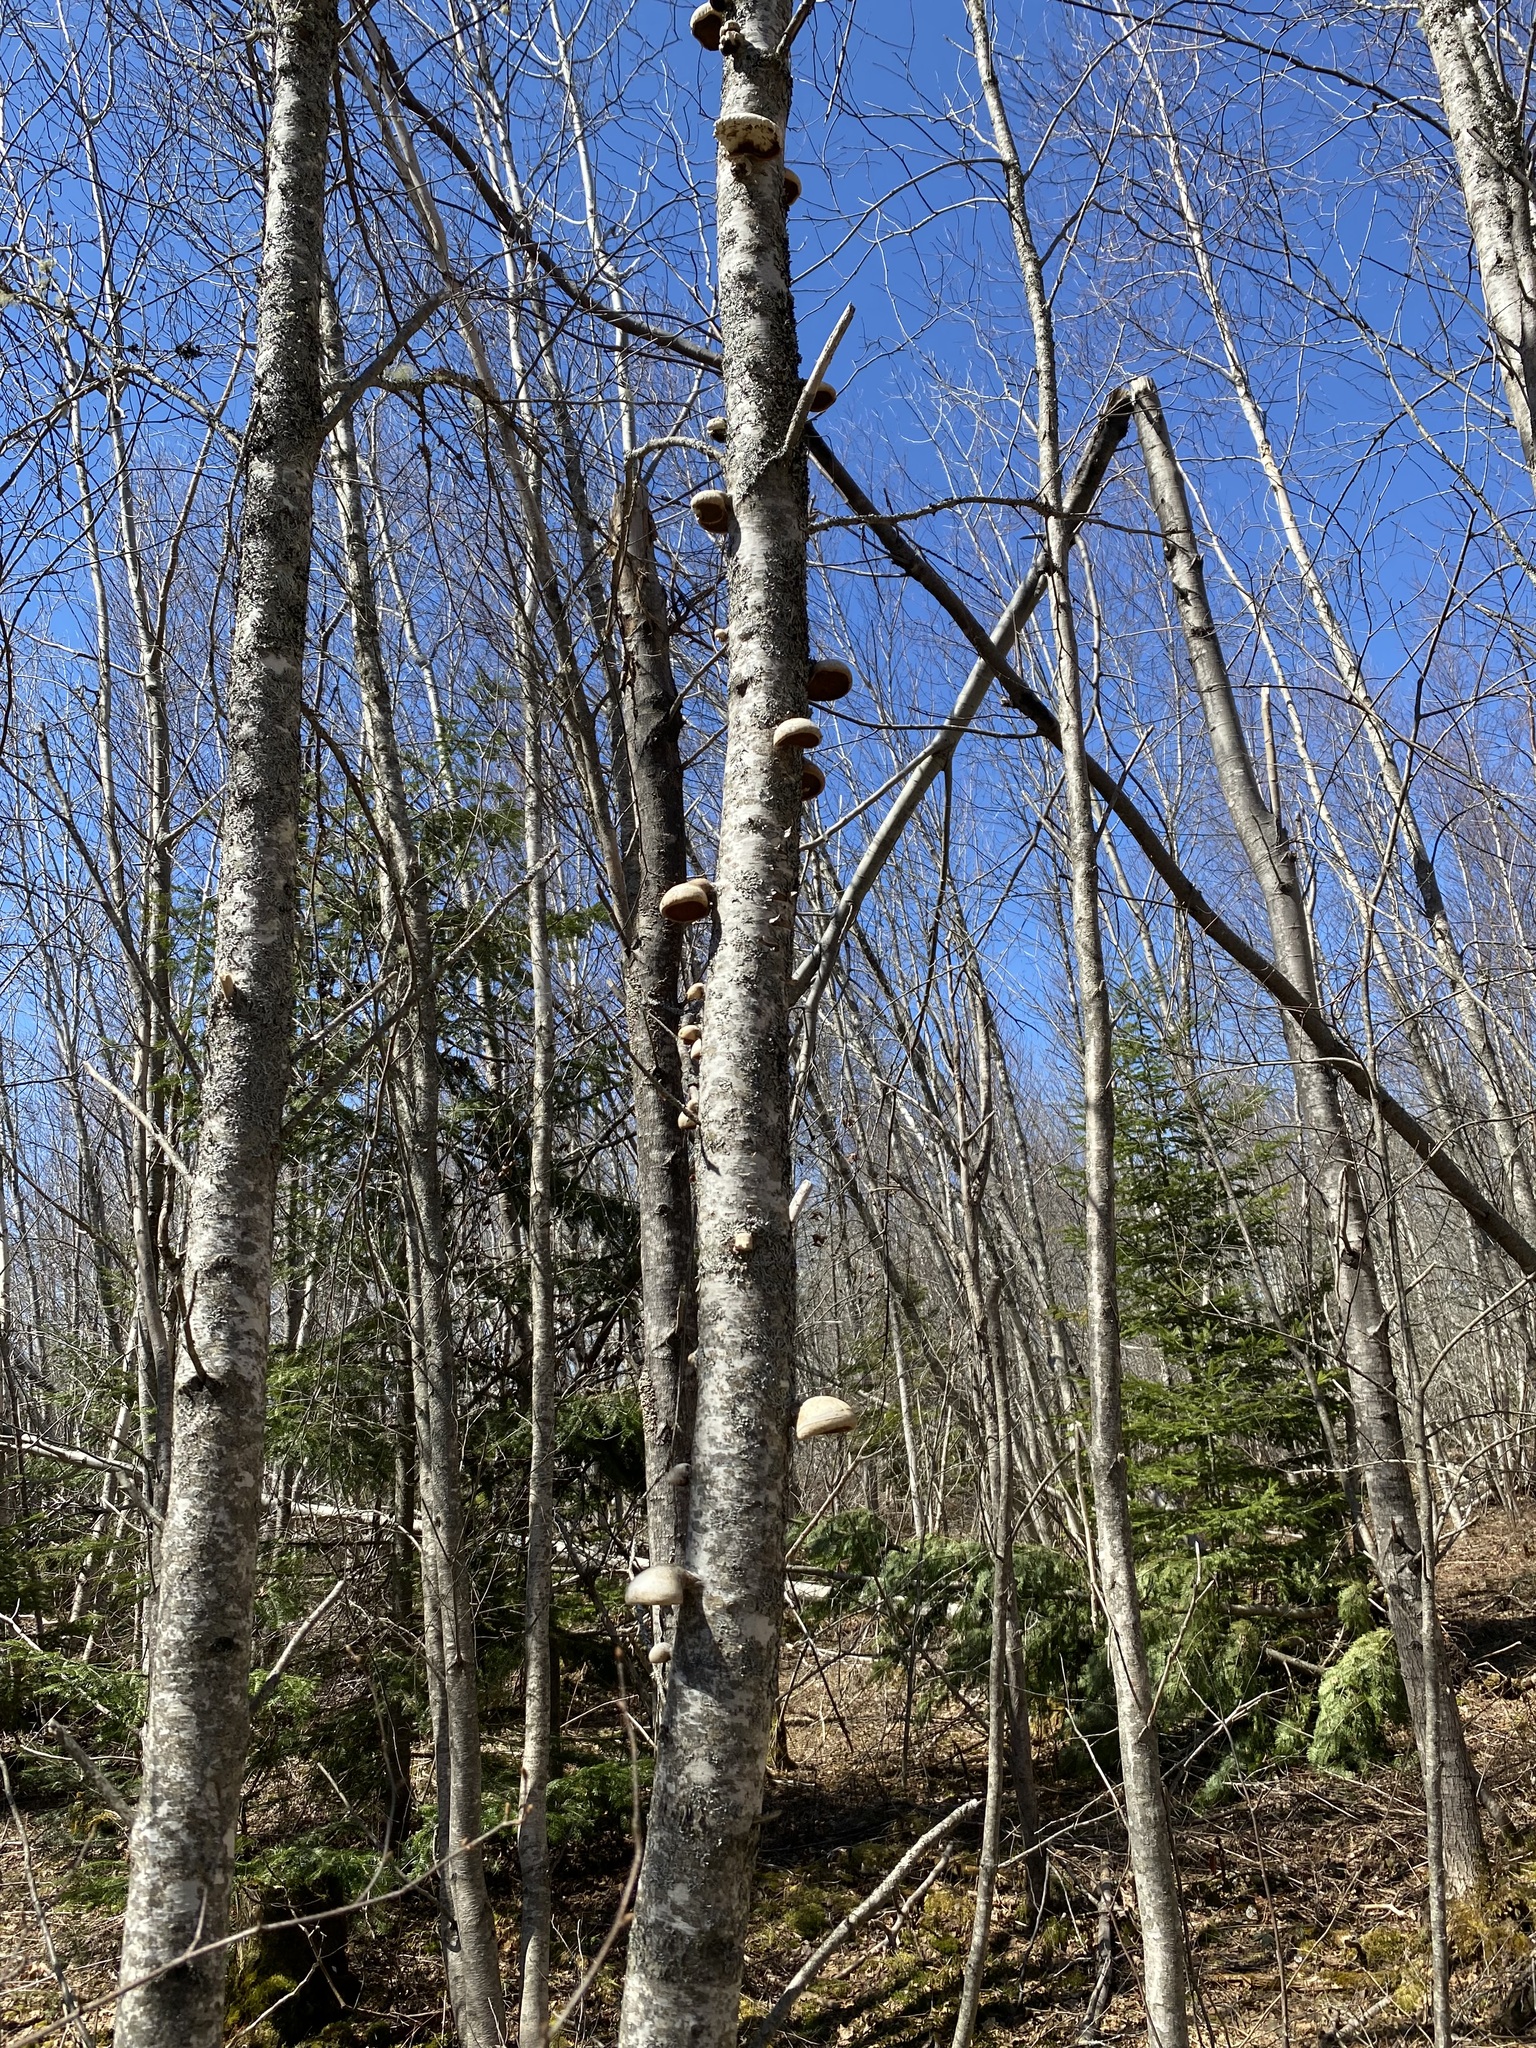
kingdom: Fungi
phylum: Basidiomycota
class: Agaricomycetes
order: Polyporales
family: Fomitopsidaceae
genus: Fomitopsis
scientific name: Fomitopsis betulina
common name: Birch polypore
